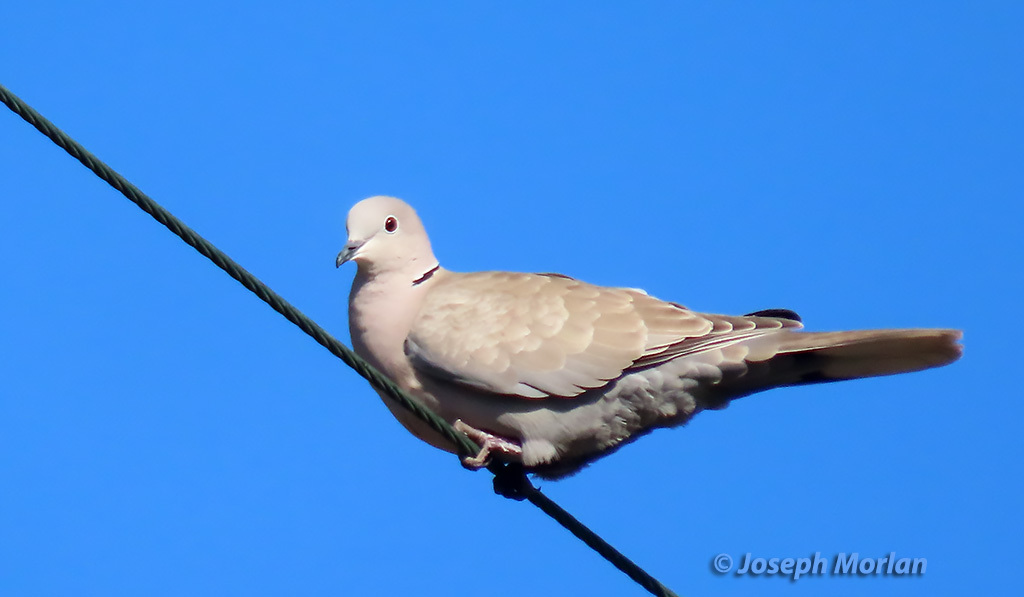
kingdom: Animalia
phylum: Chordata
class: Aves
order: Columbiformes
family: Columbidae
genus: Streptopelia
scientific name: Streptopelia decaocto
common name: Eurasian collared dove
